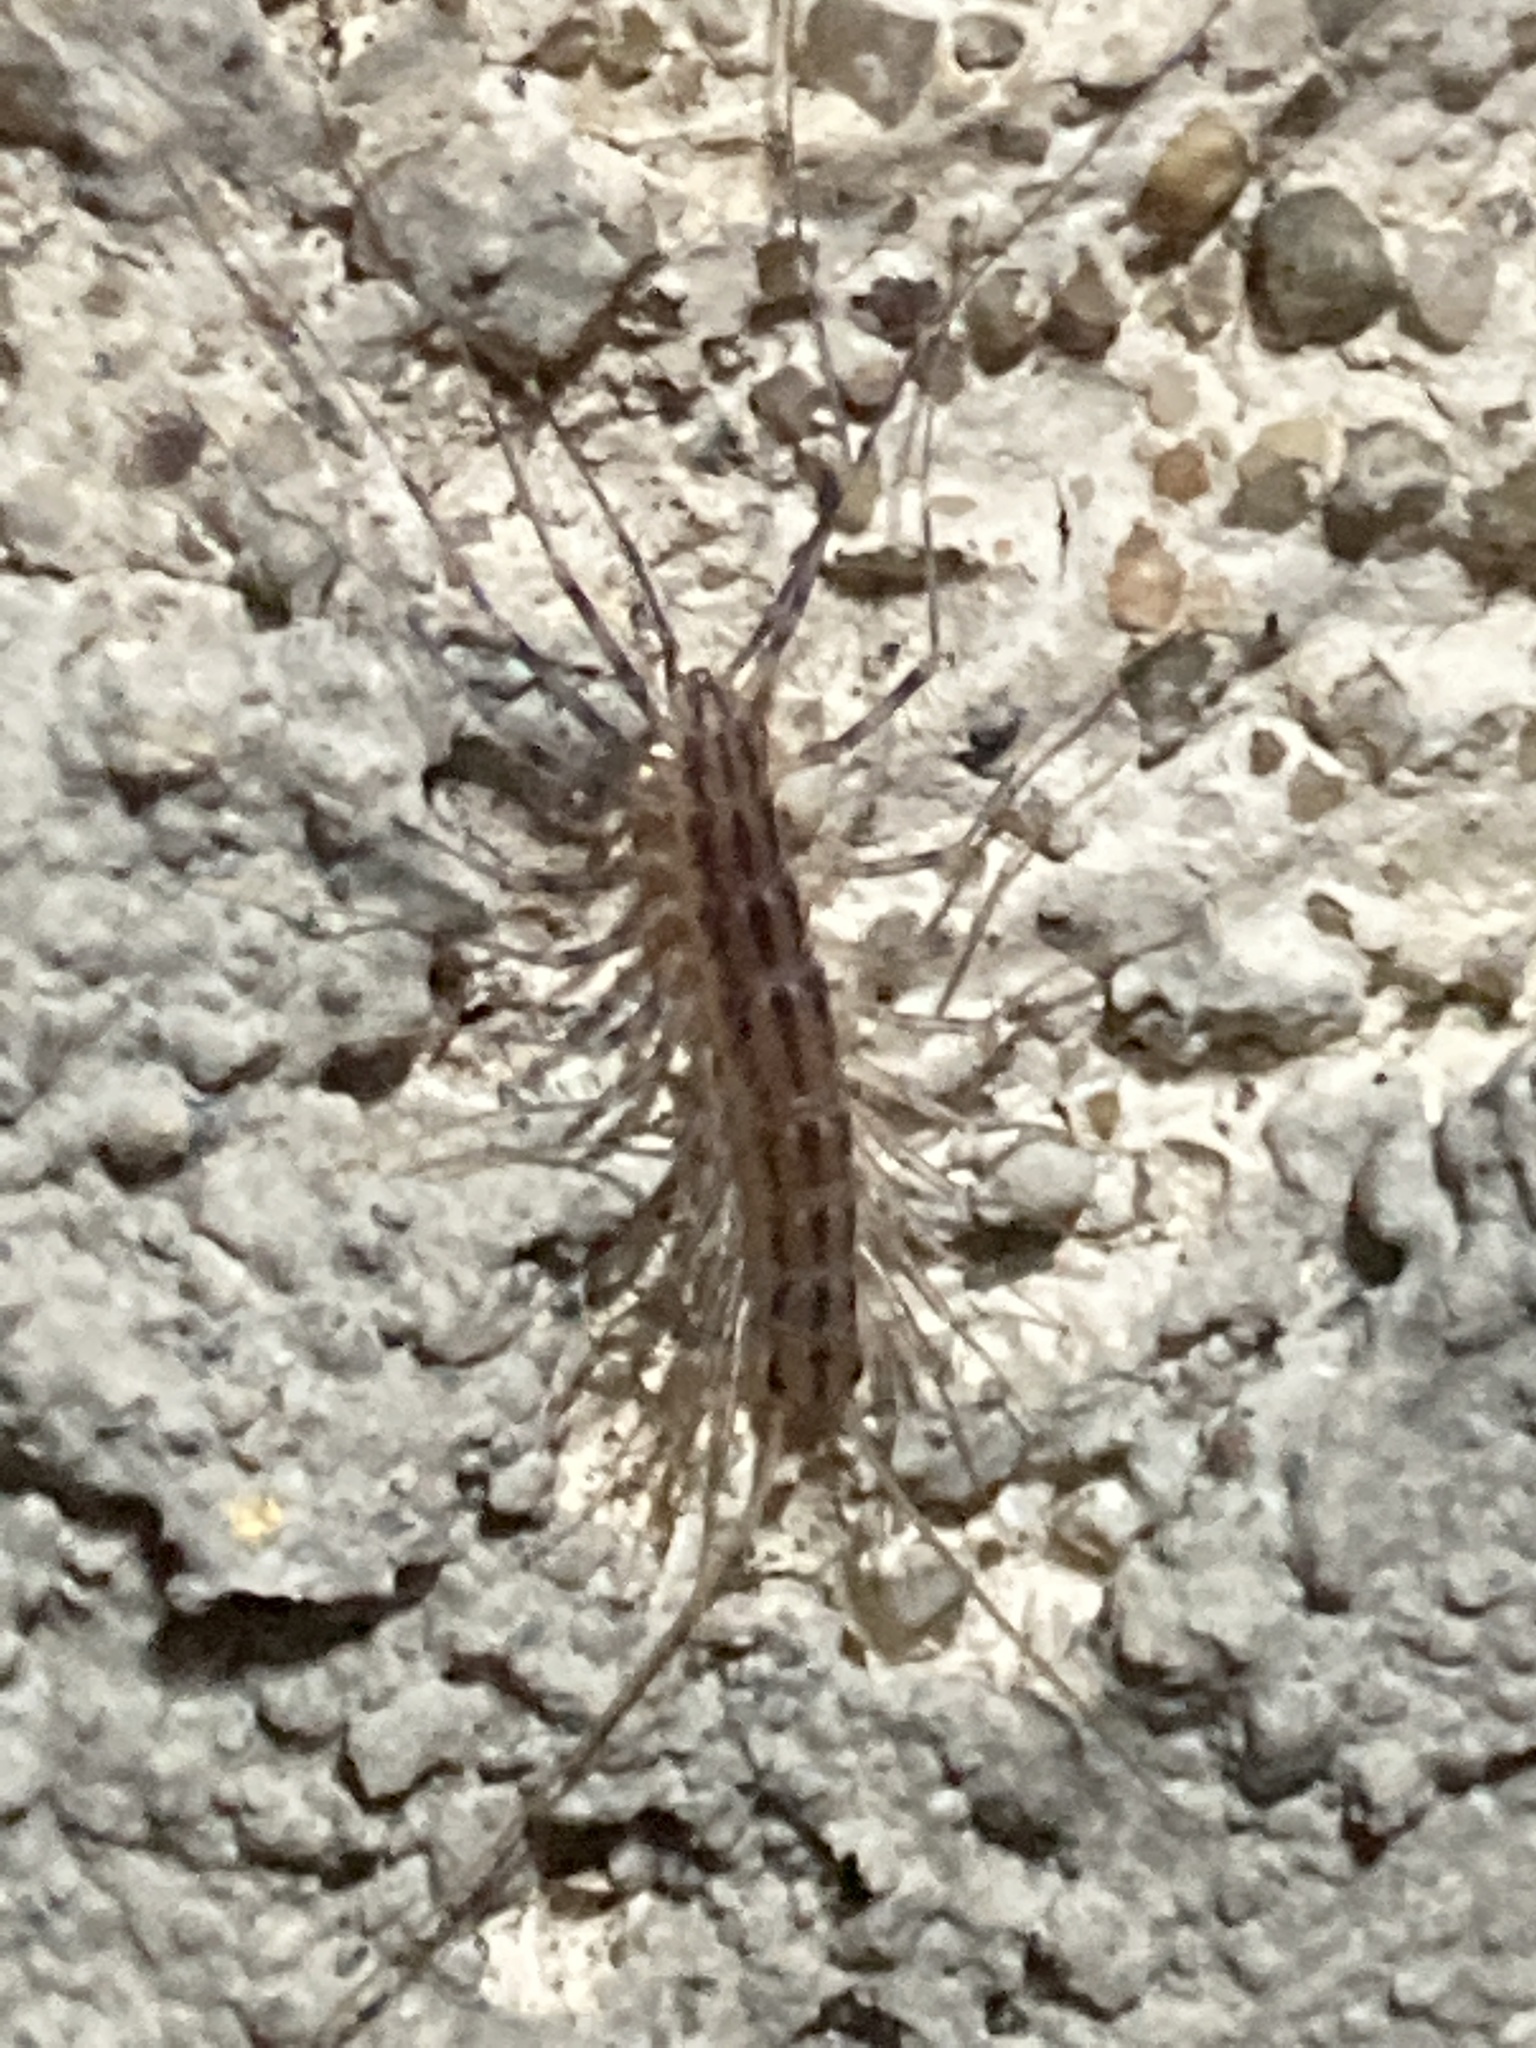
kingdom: Animalia
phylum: Arthropoda
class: Chilopoda
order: Scutigeromorpha
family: Scutigeridae
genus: Scutigera
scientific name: Scutigera coleoptrata
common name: House centipede
